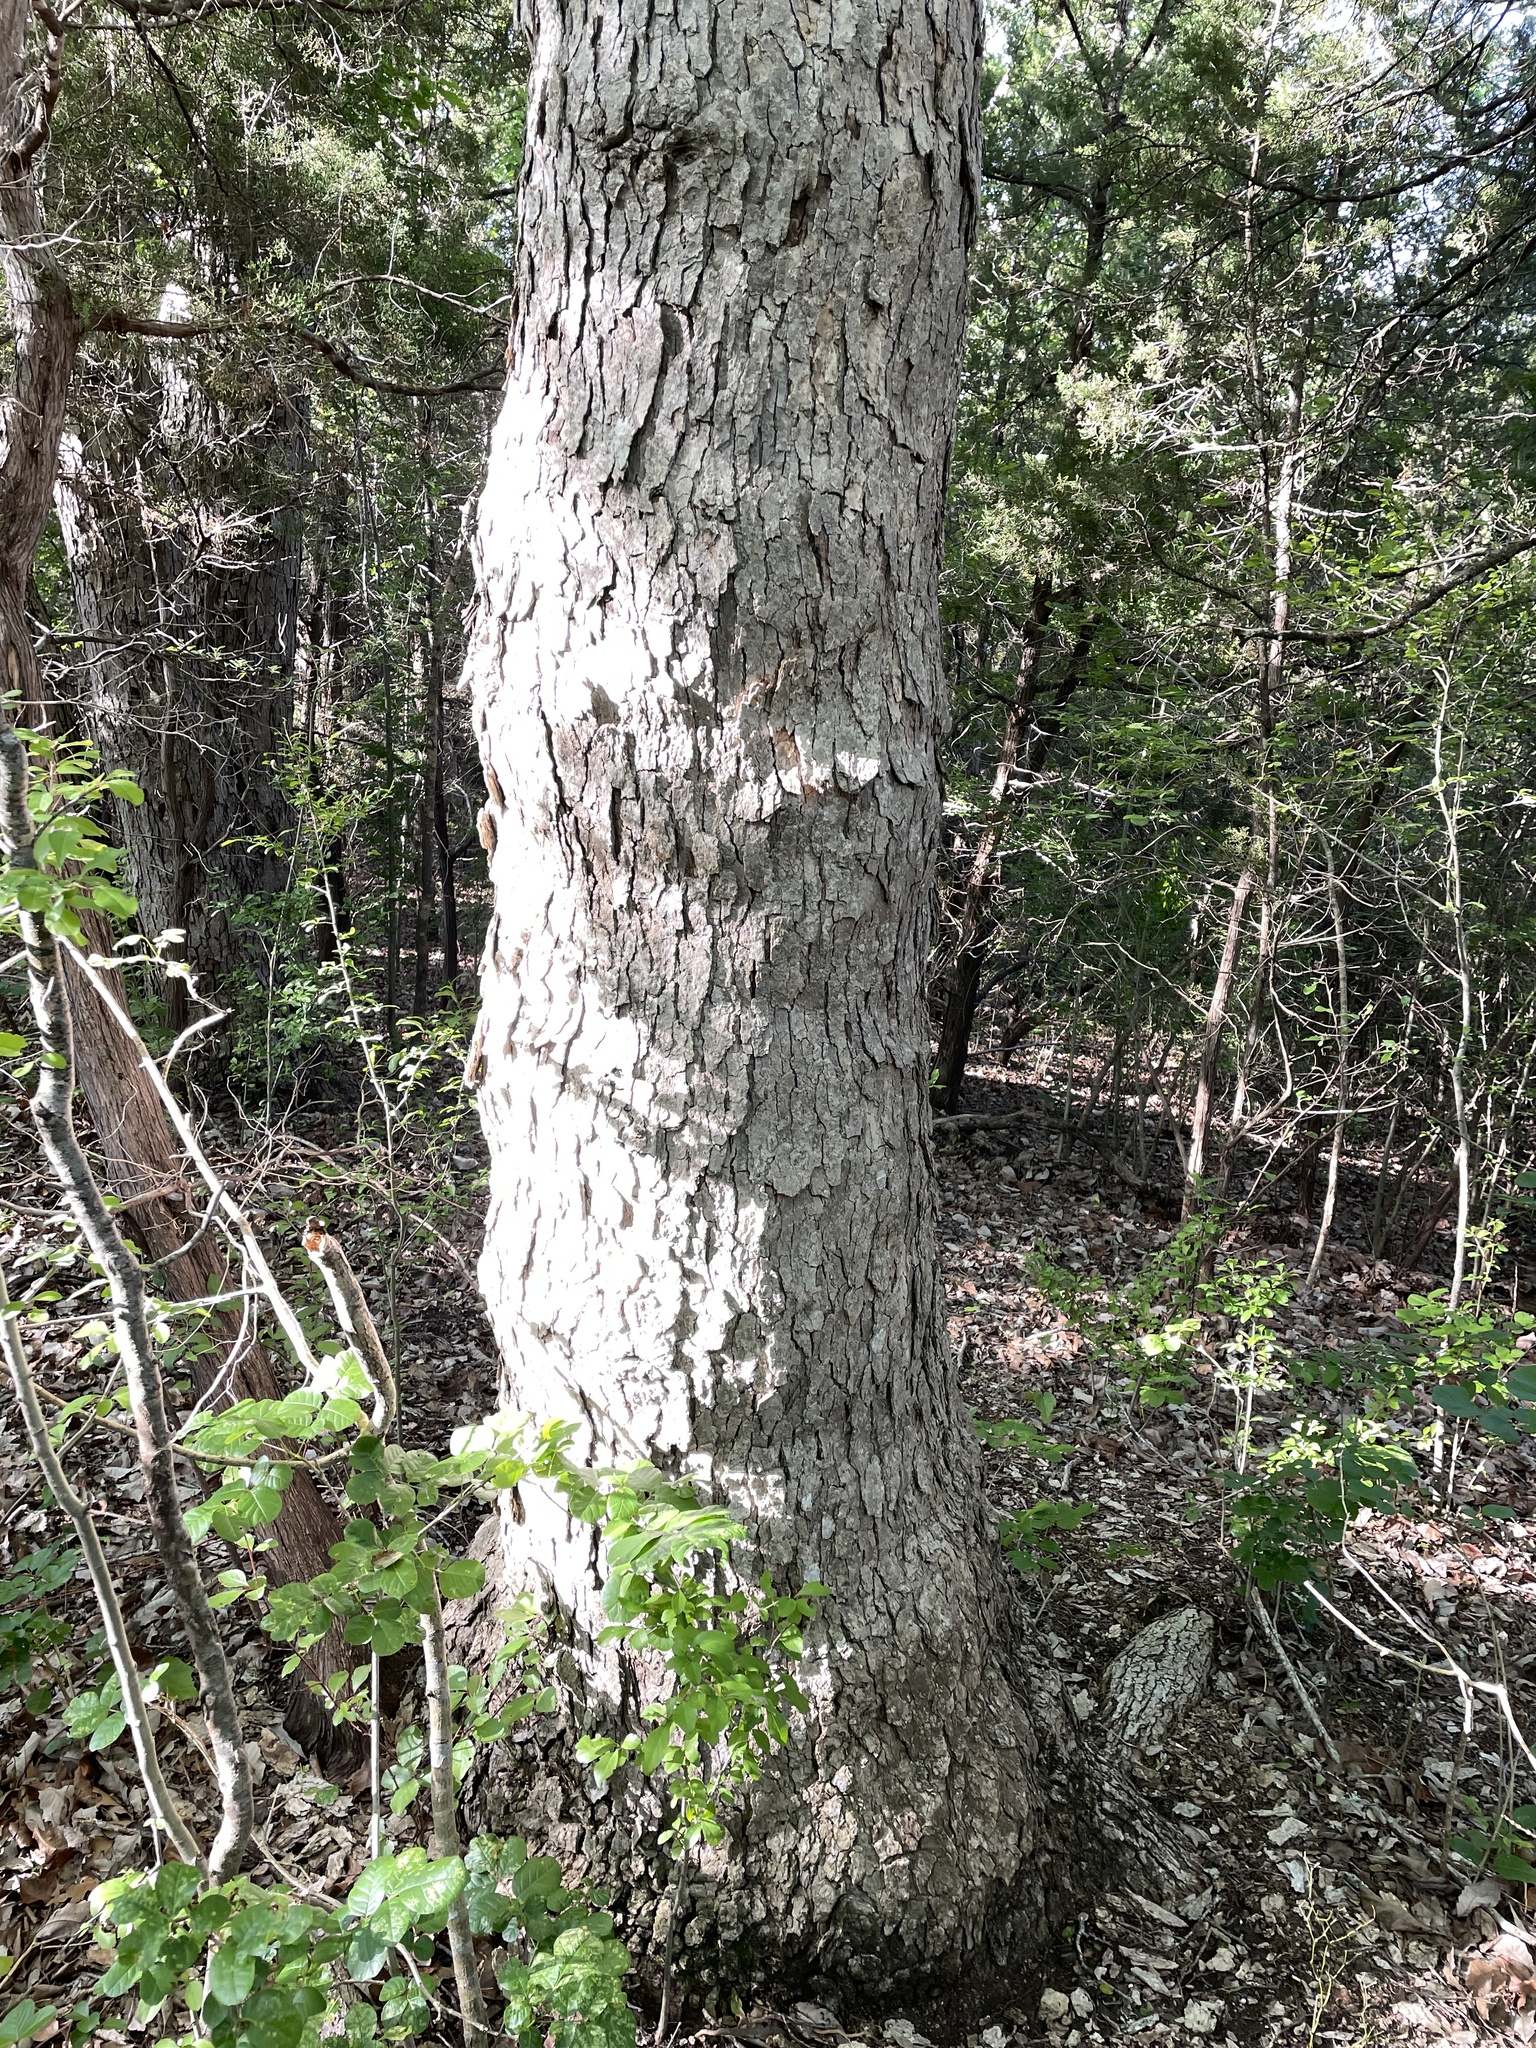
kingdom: Plantae
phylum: Tracheophyta
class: Magnoliopsida
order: Fagales
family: Fagaceae
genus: Quercus
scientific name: Quercus muehlenbergii
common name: Chinkapin oak
